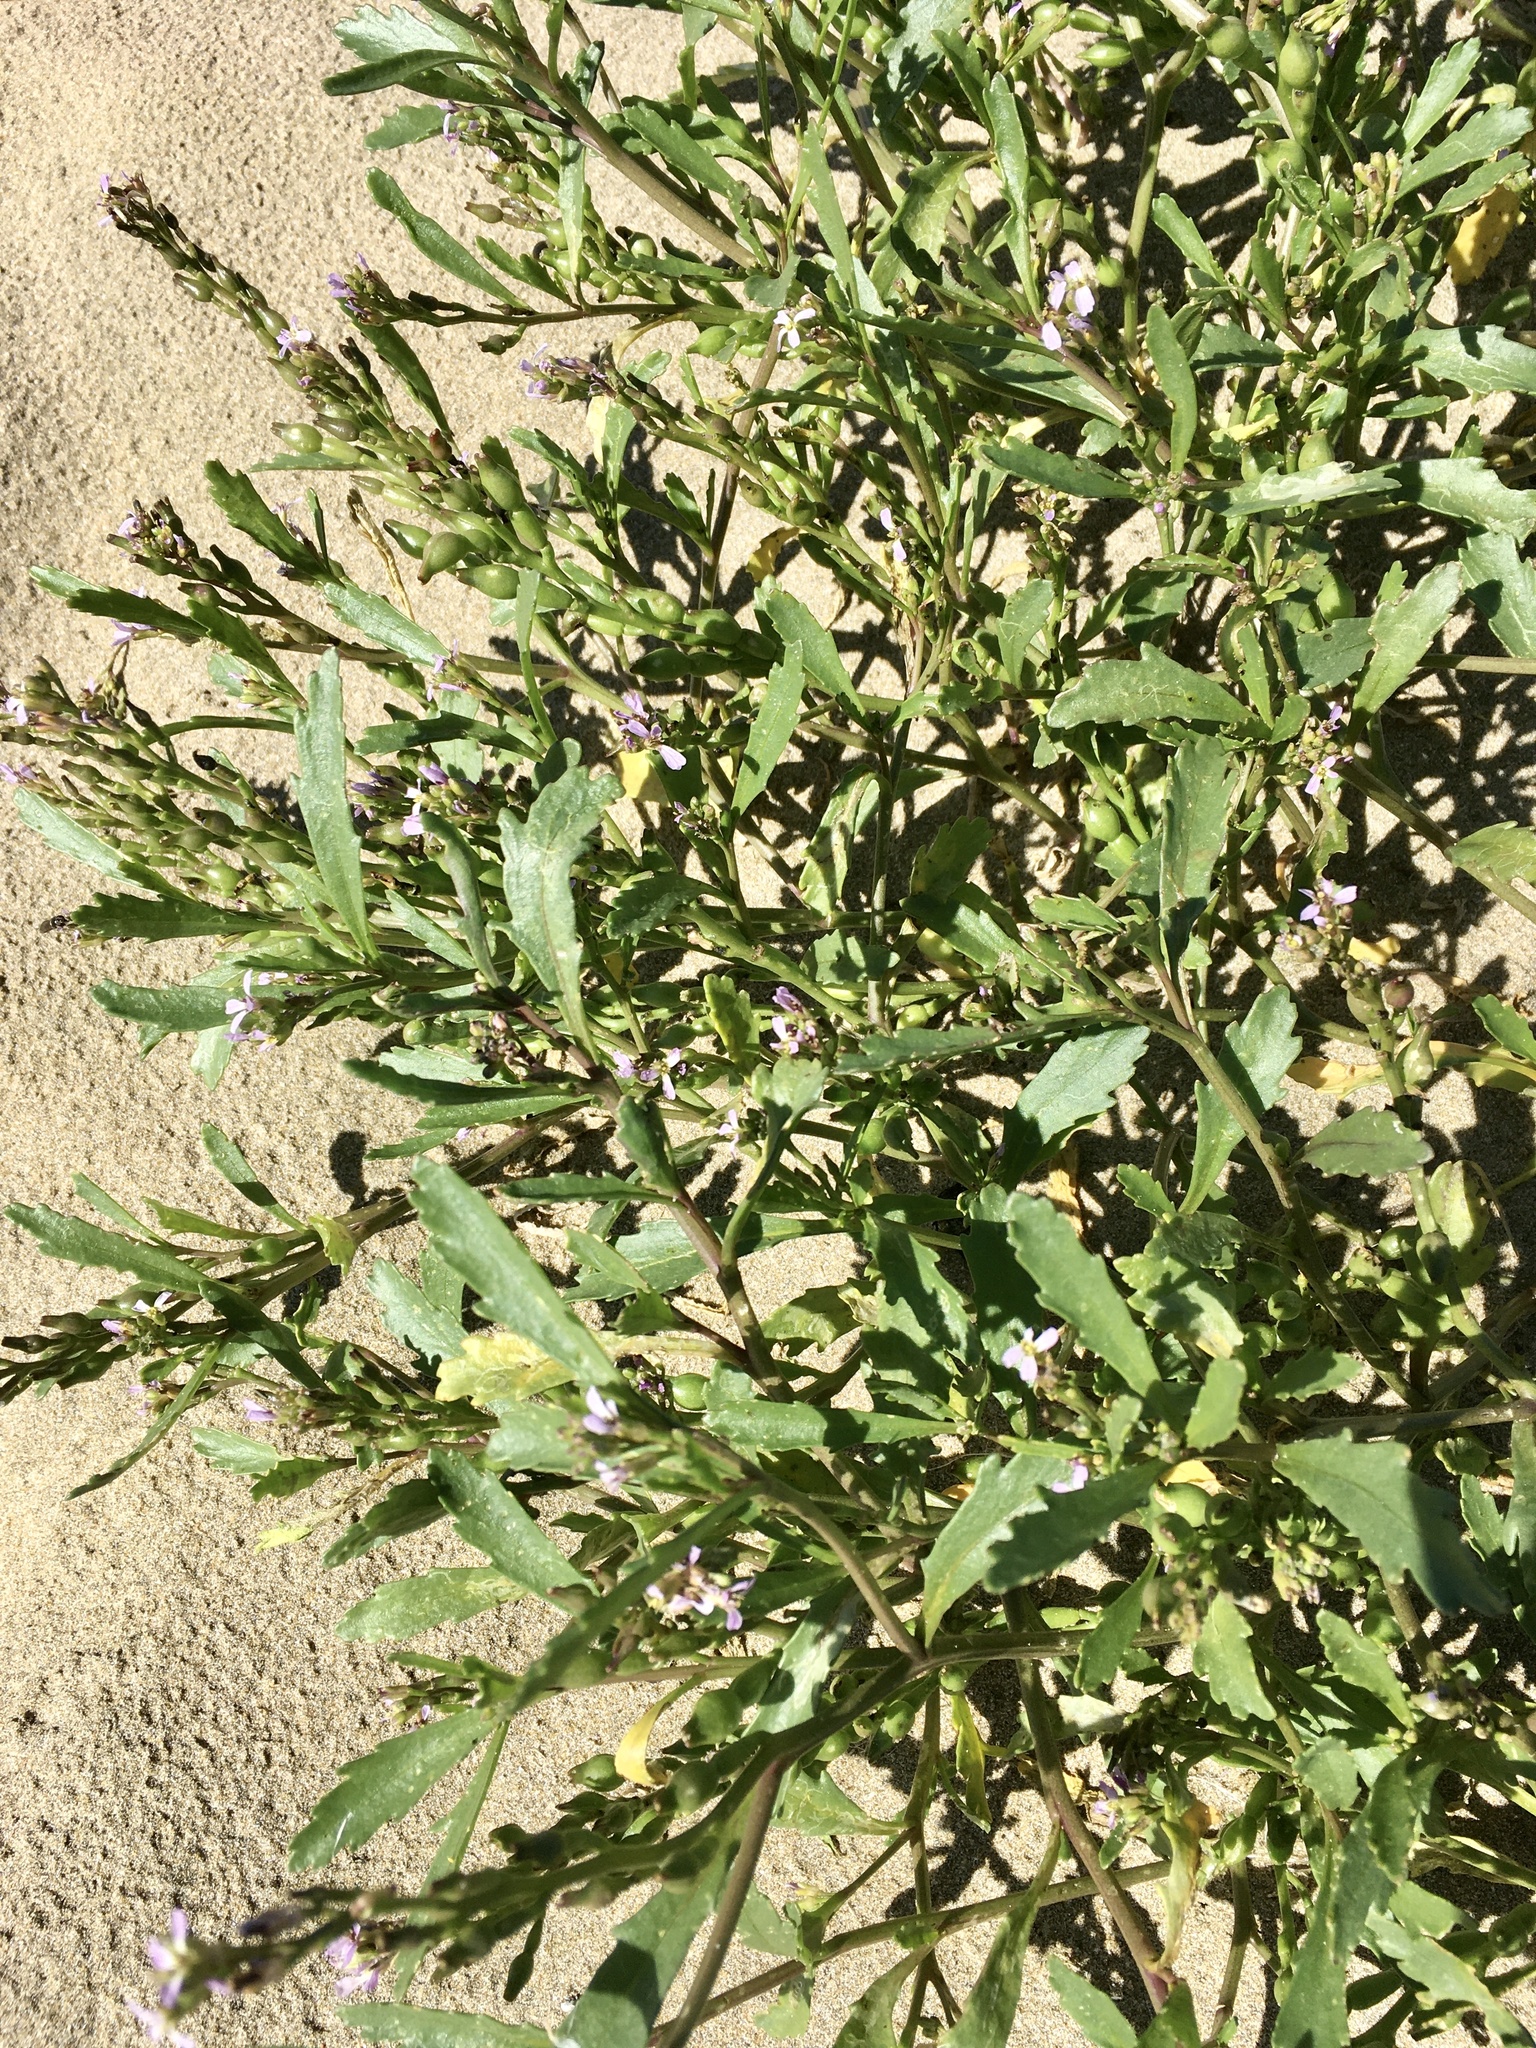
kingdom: Plantae
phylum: Tracheophyta
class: Magnoliopsida
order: Brassicales
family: Brassicaceae
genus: Cakile
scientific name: Cakile edentula
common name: American sea rocket
